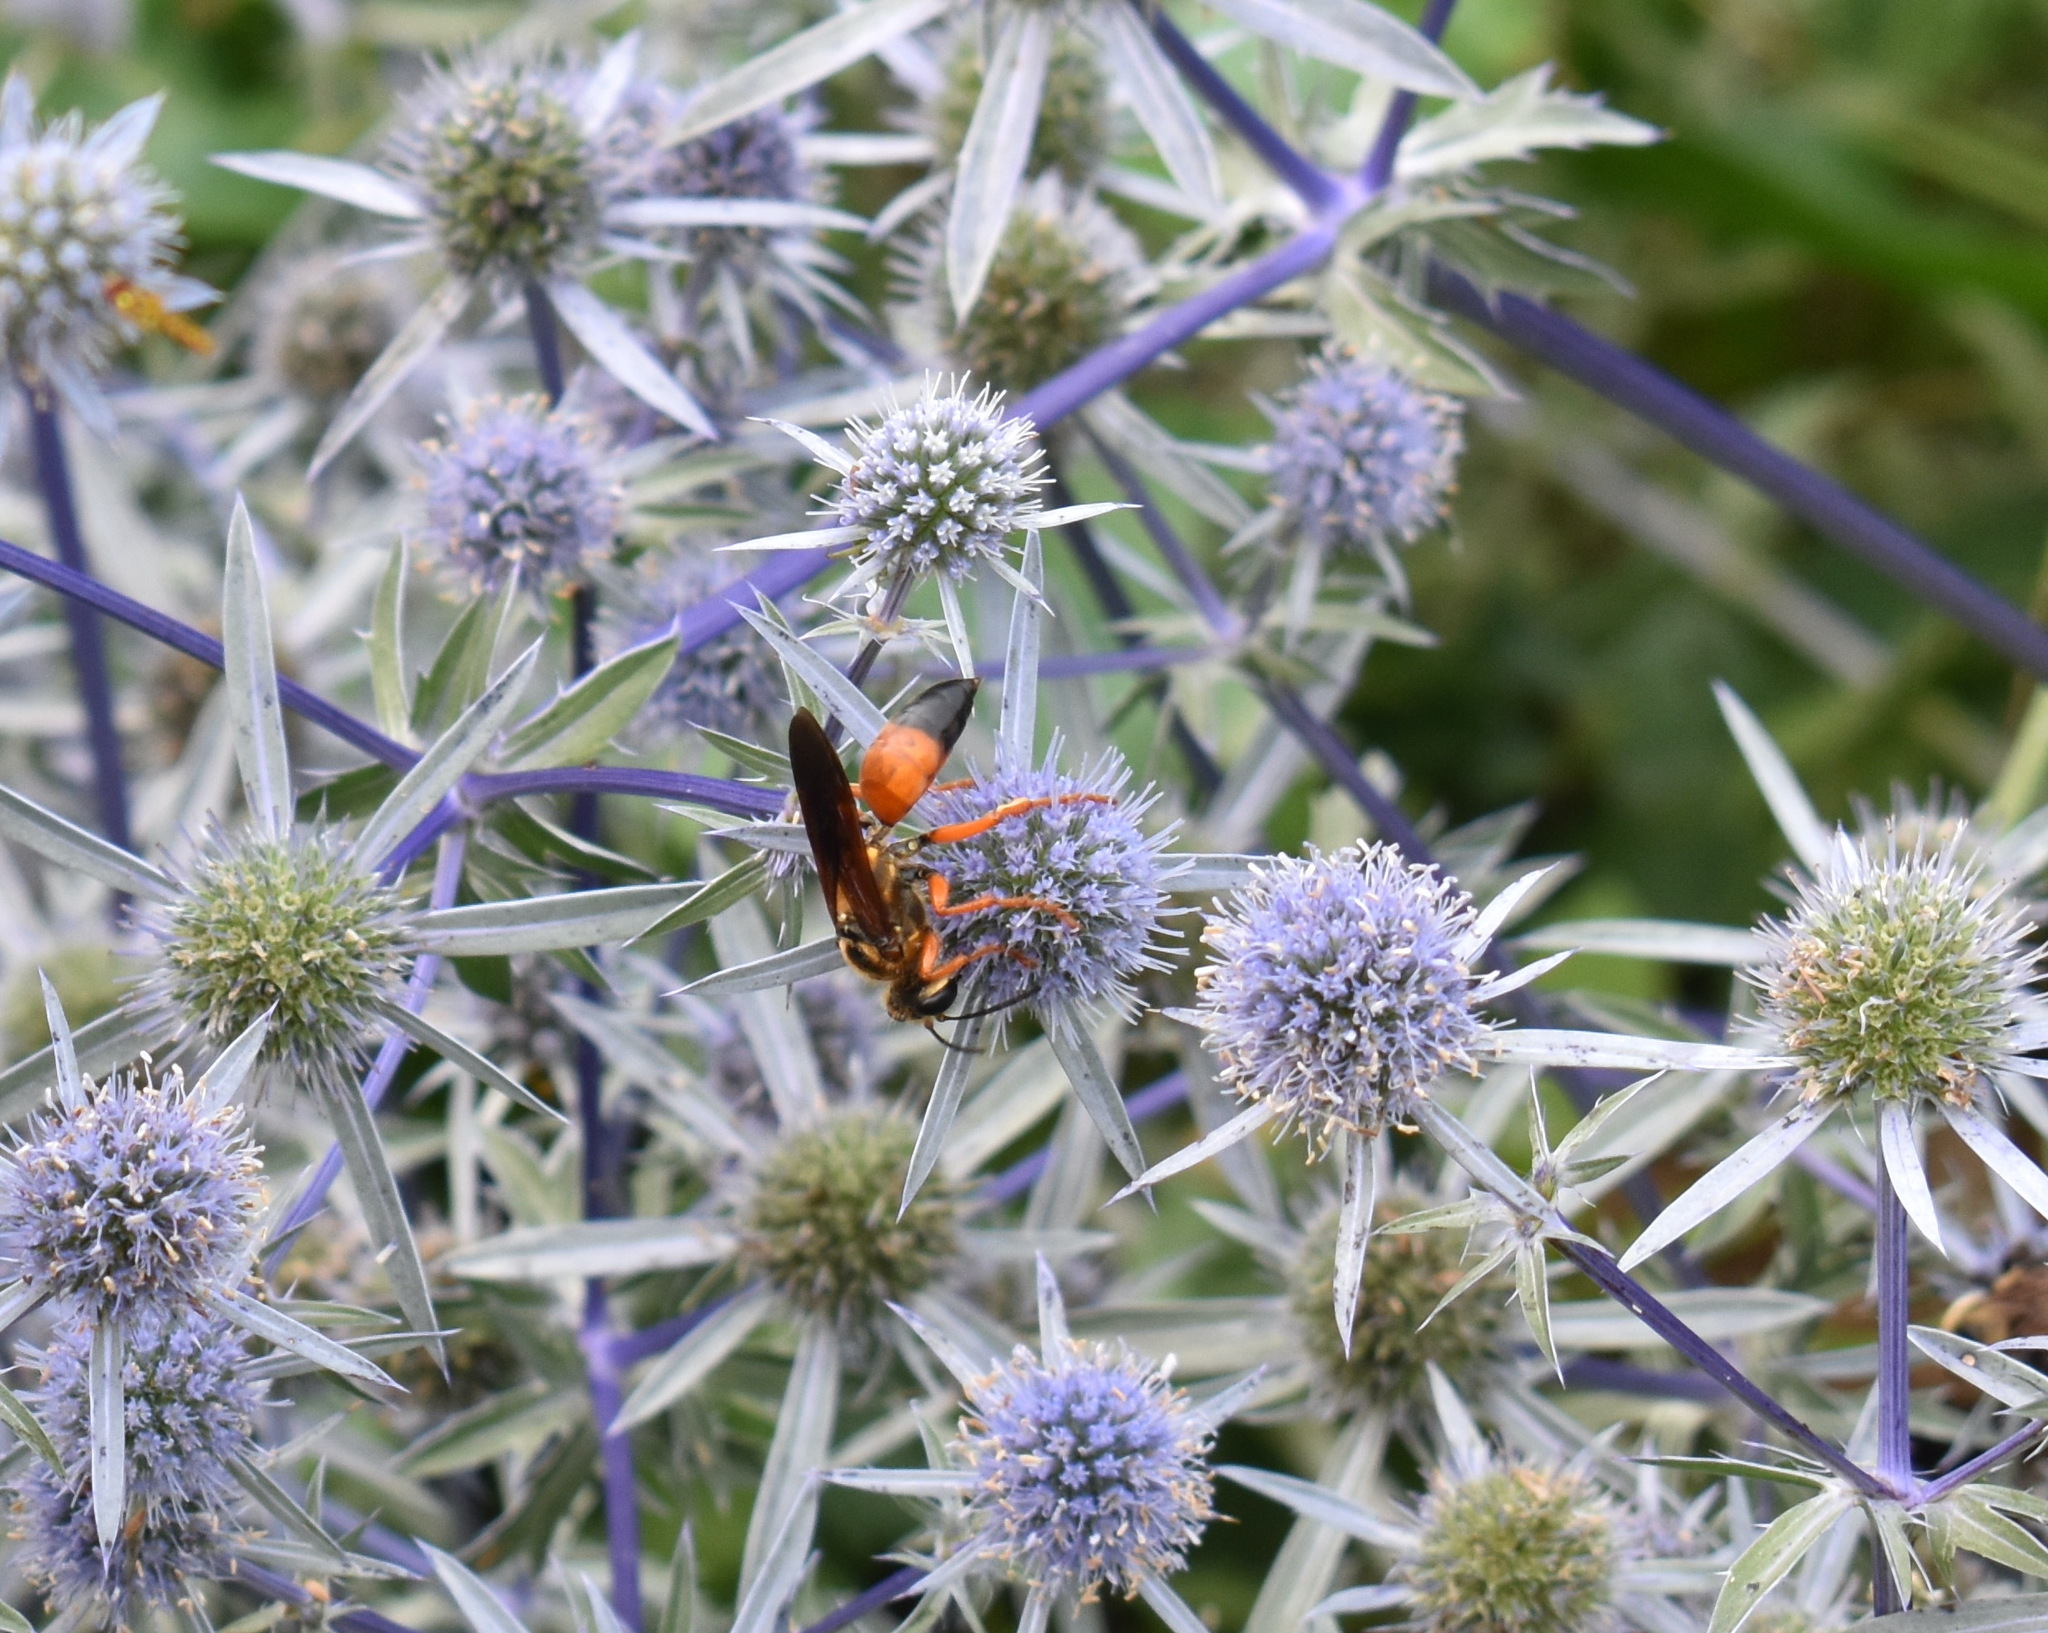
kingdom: Animalia
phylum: Arthropoda
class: Insecta
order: Hymenoptera
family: Sphecidae
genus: Sphex
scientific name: Sphex ichneumoneus
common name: Great golden digger wasp
